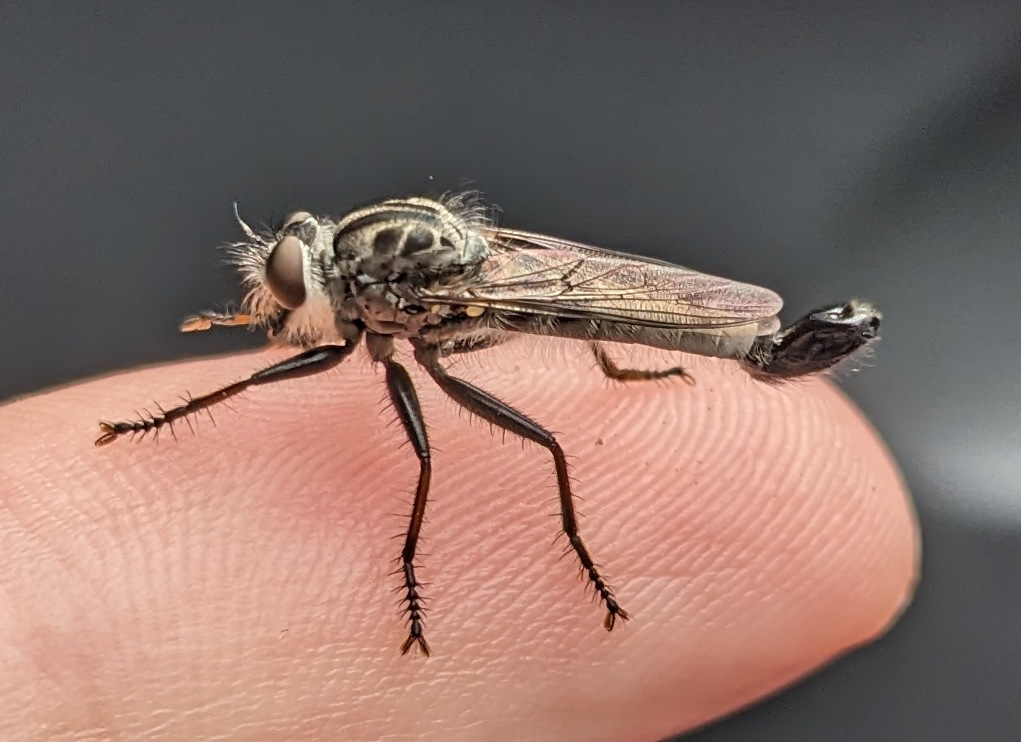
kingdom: Animalia
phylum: Arthropoda
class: Insecta
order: Diptera
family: Asilidae
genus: Efferia
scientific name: Efferia aestuans
